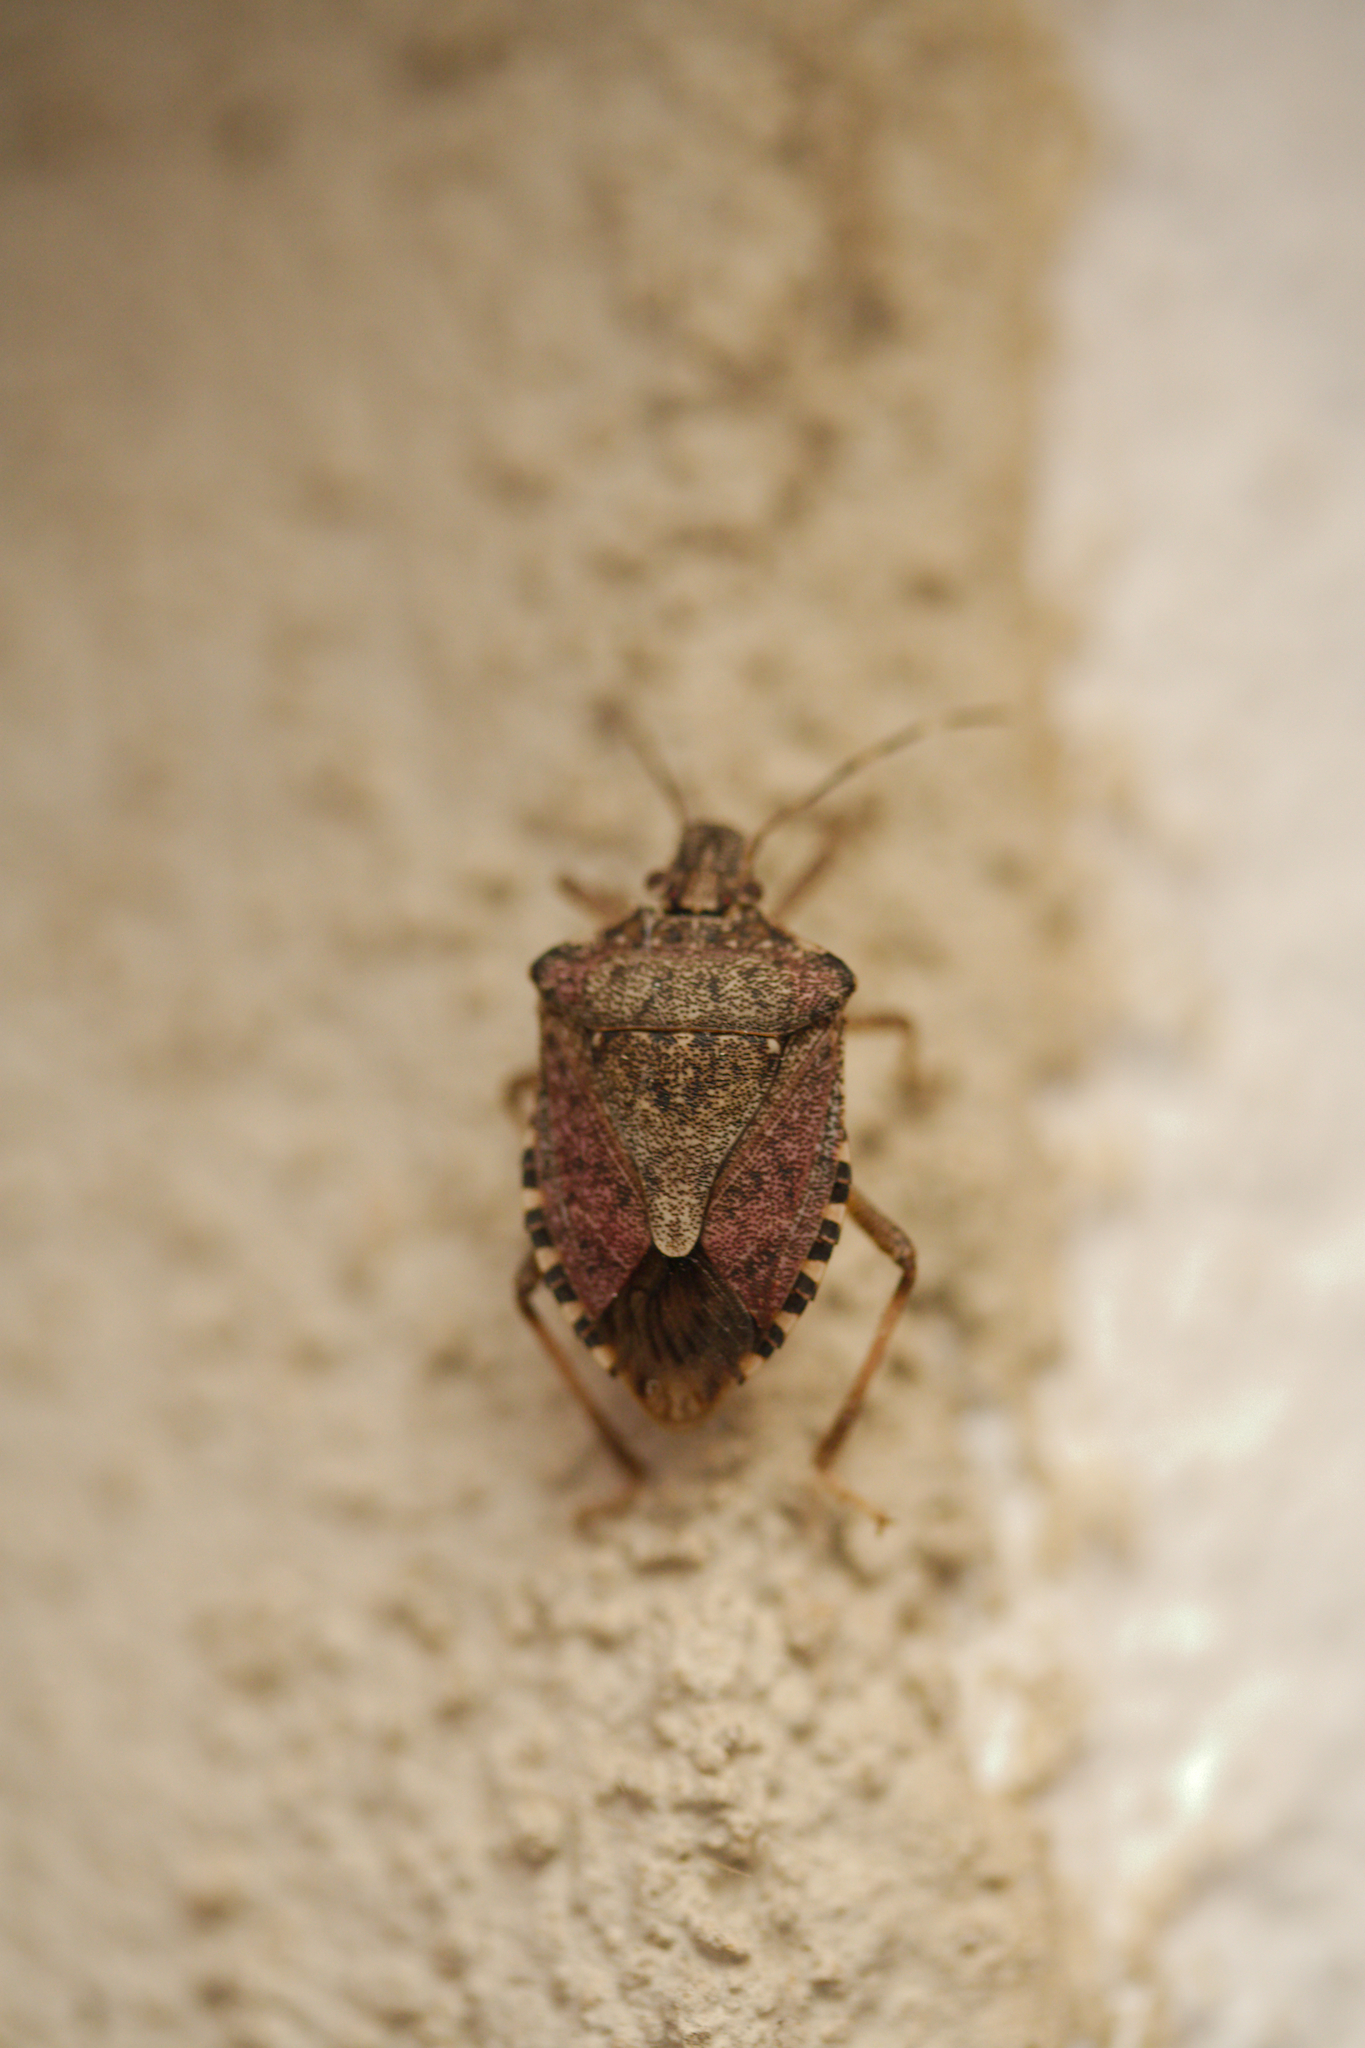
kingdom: Animalia
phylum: Arthropoda
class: Insecta
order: Hemiptera
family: Pentatomidae
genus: Halyomorpha
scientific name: Halyomorpha halys
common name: Brown marmorated stink bug
